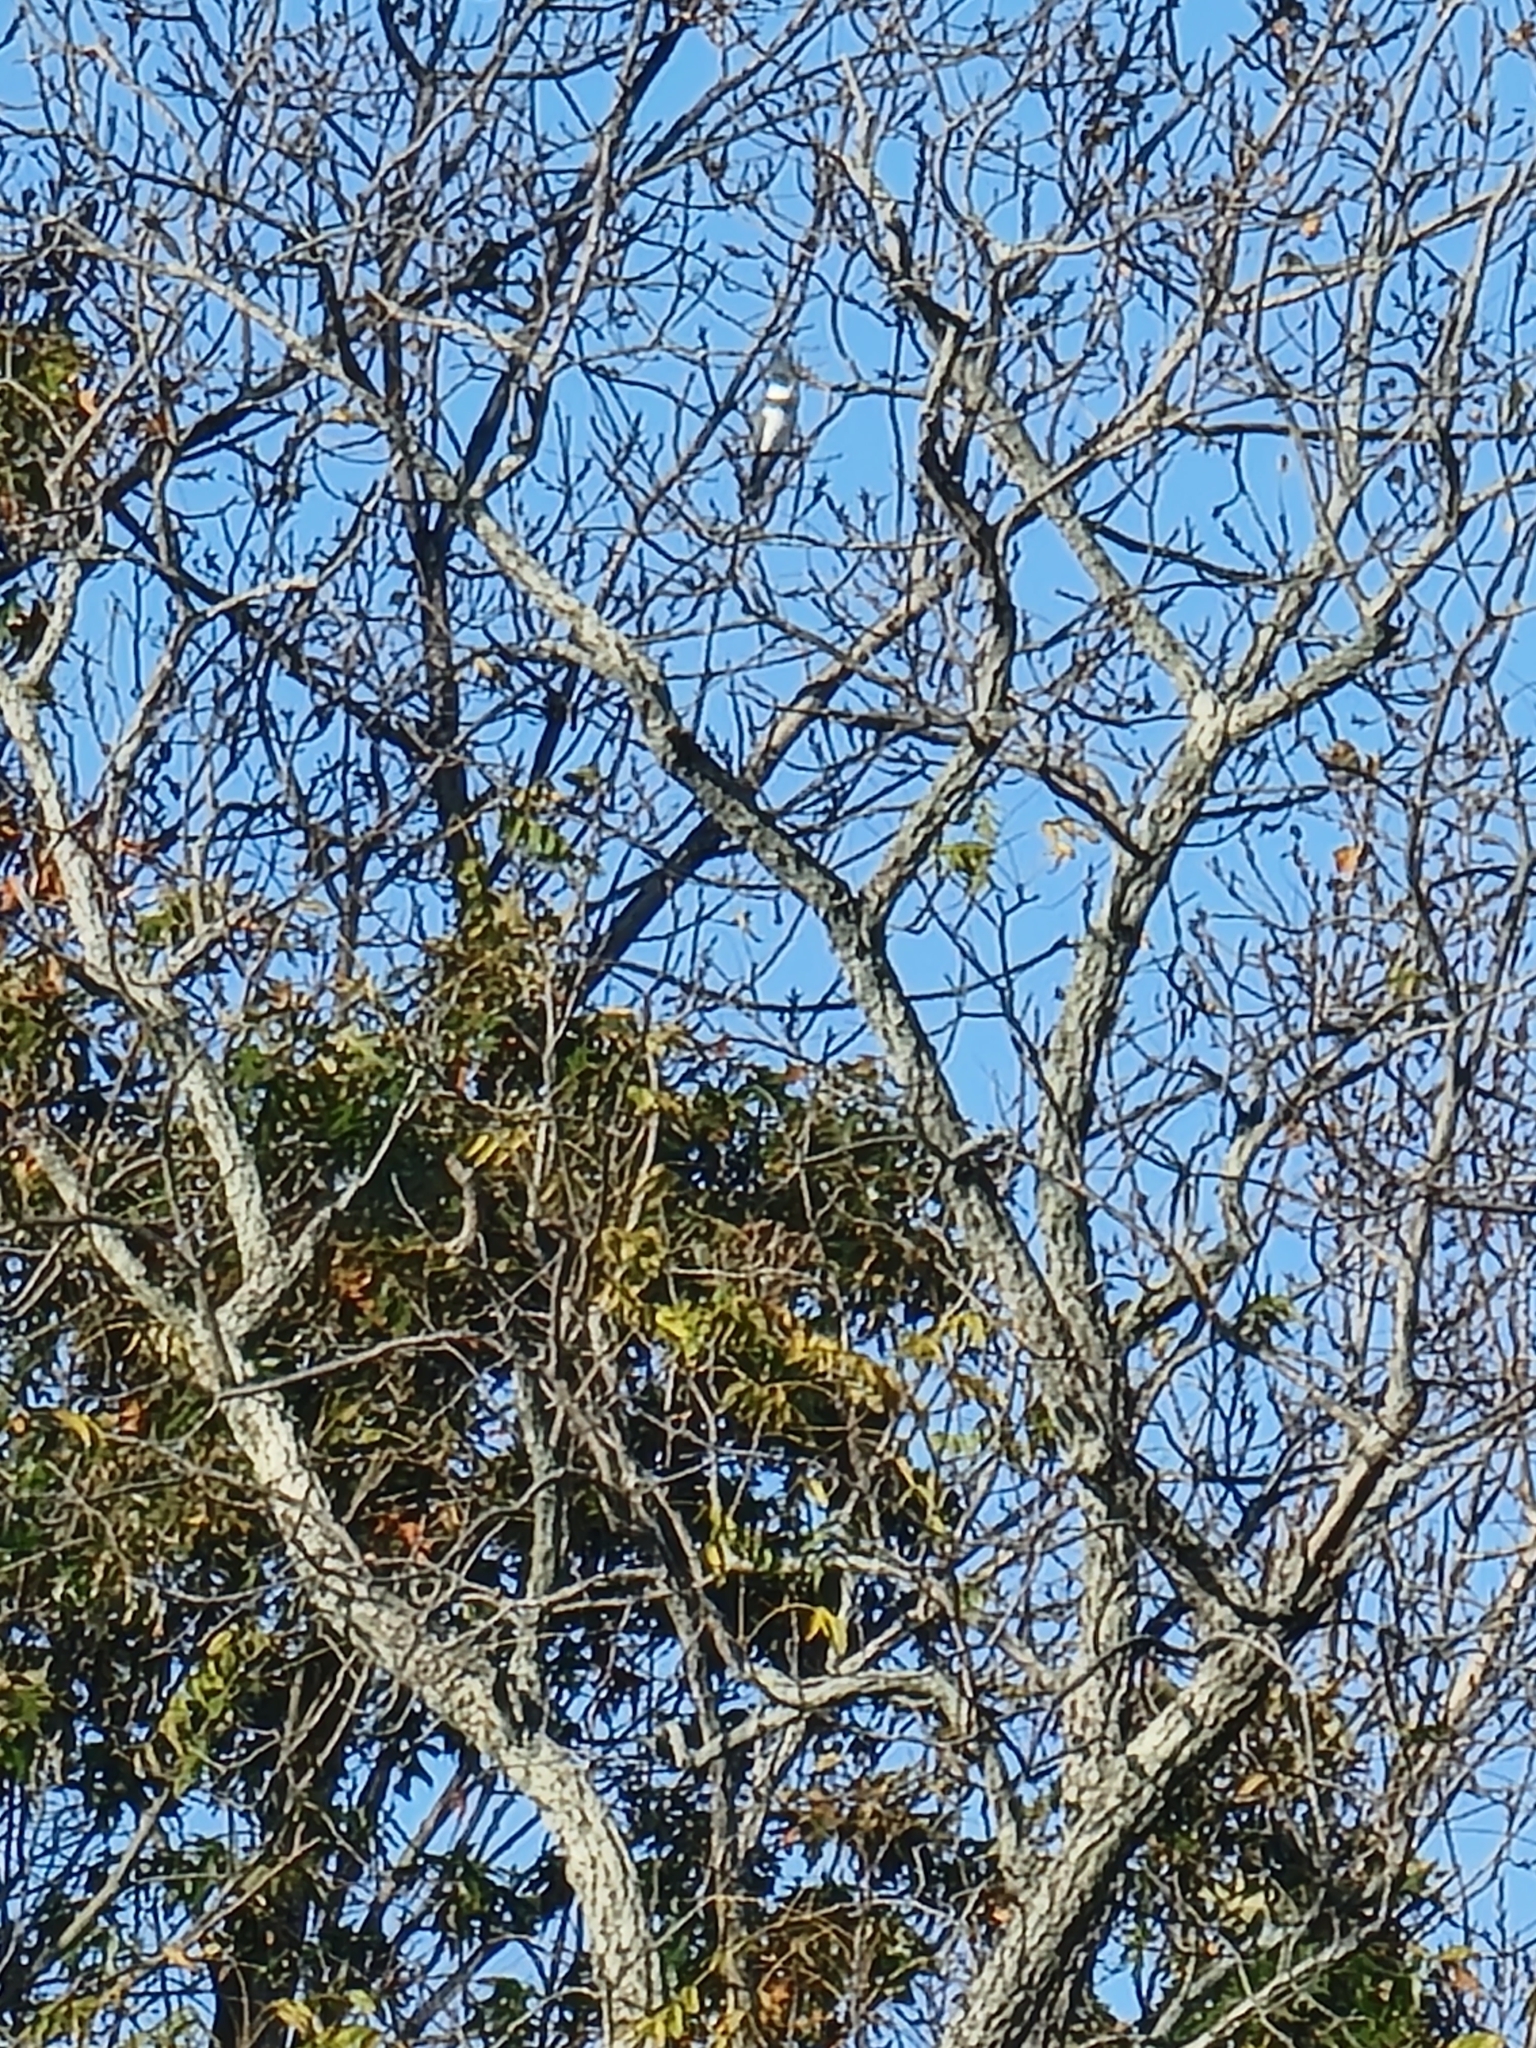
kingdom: Animalia
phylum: Chordata
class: Aves
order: Coraciiformes
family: Alcedinidae
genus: Megaceryle
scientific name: Megaceryle alcyon
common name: Belted kingfisher
